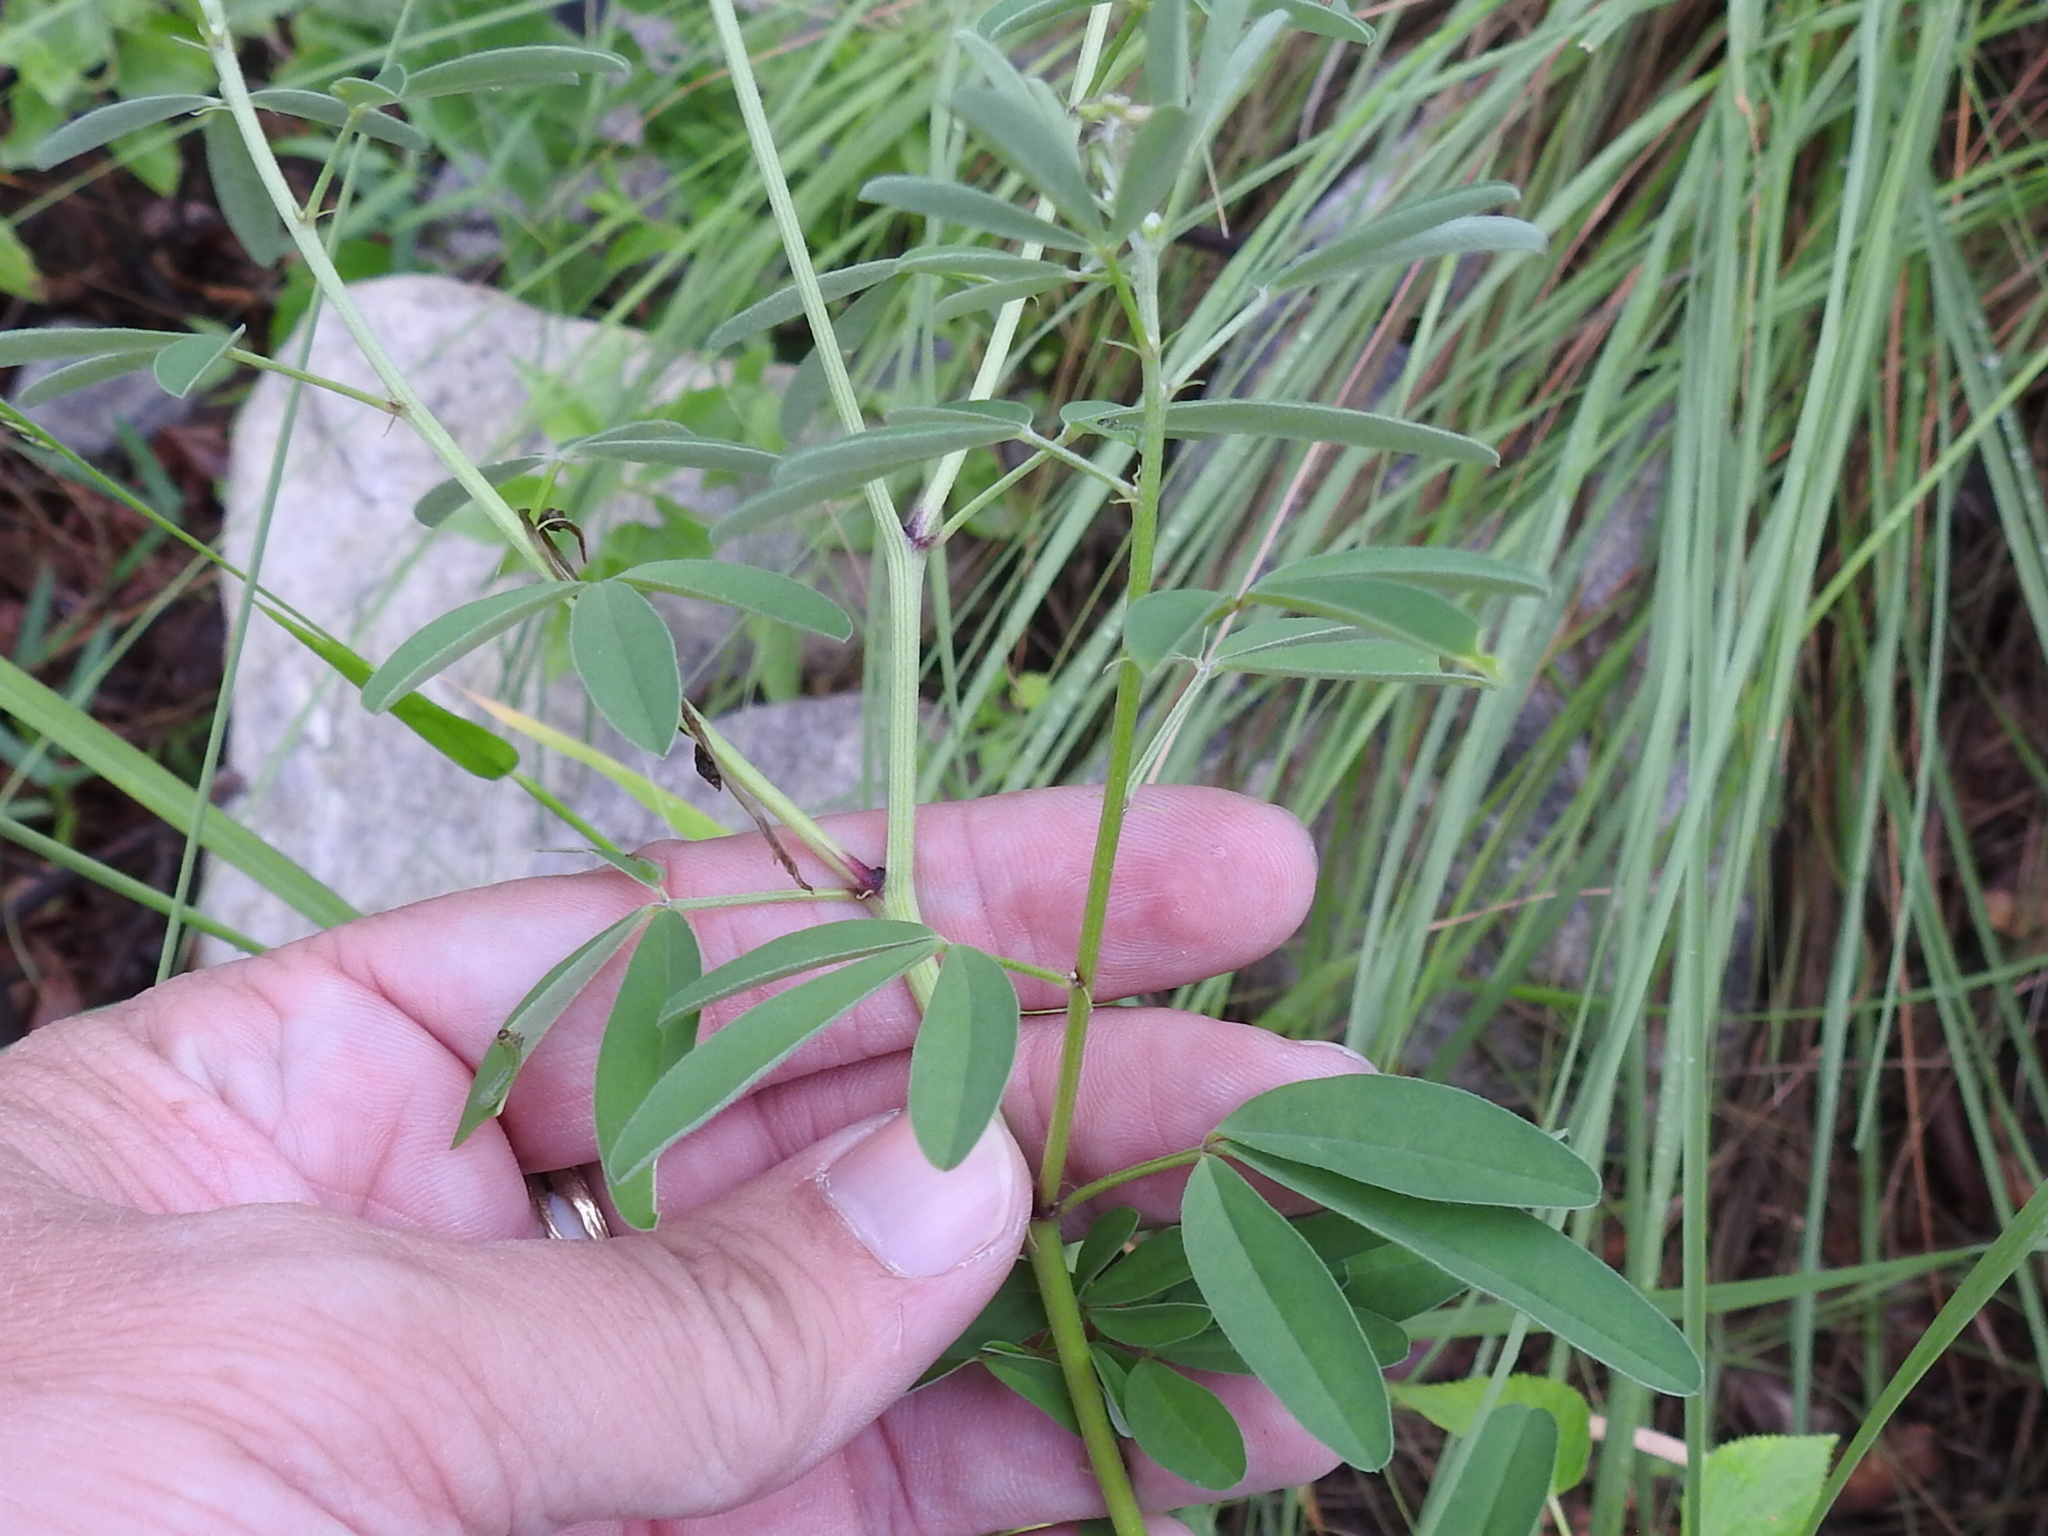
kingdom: Plantae
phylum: Tracheophyta
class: Magnoliopsida
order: Fabales
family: Fabaceae
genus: Crotalaria
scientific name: Crotalaria pumila
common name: Low rattlebox
